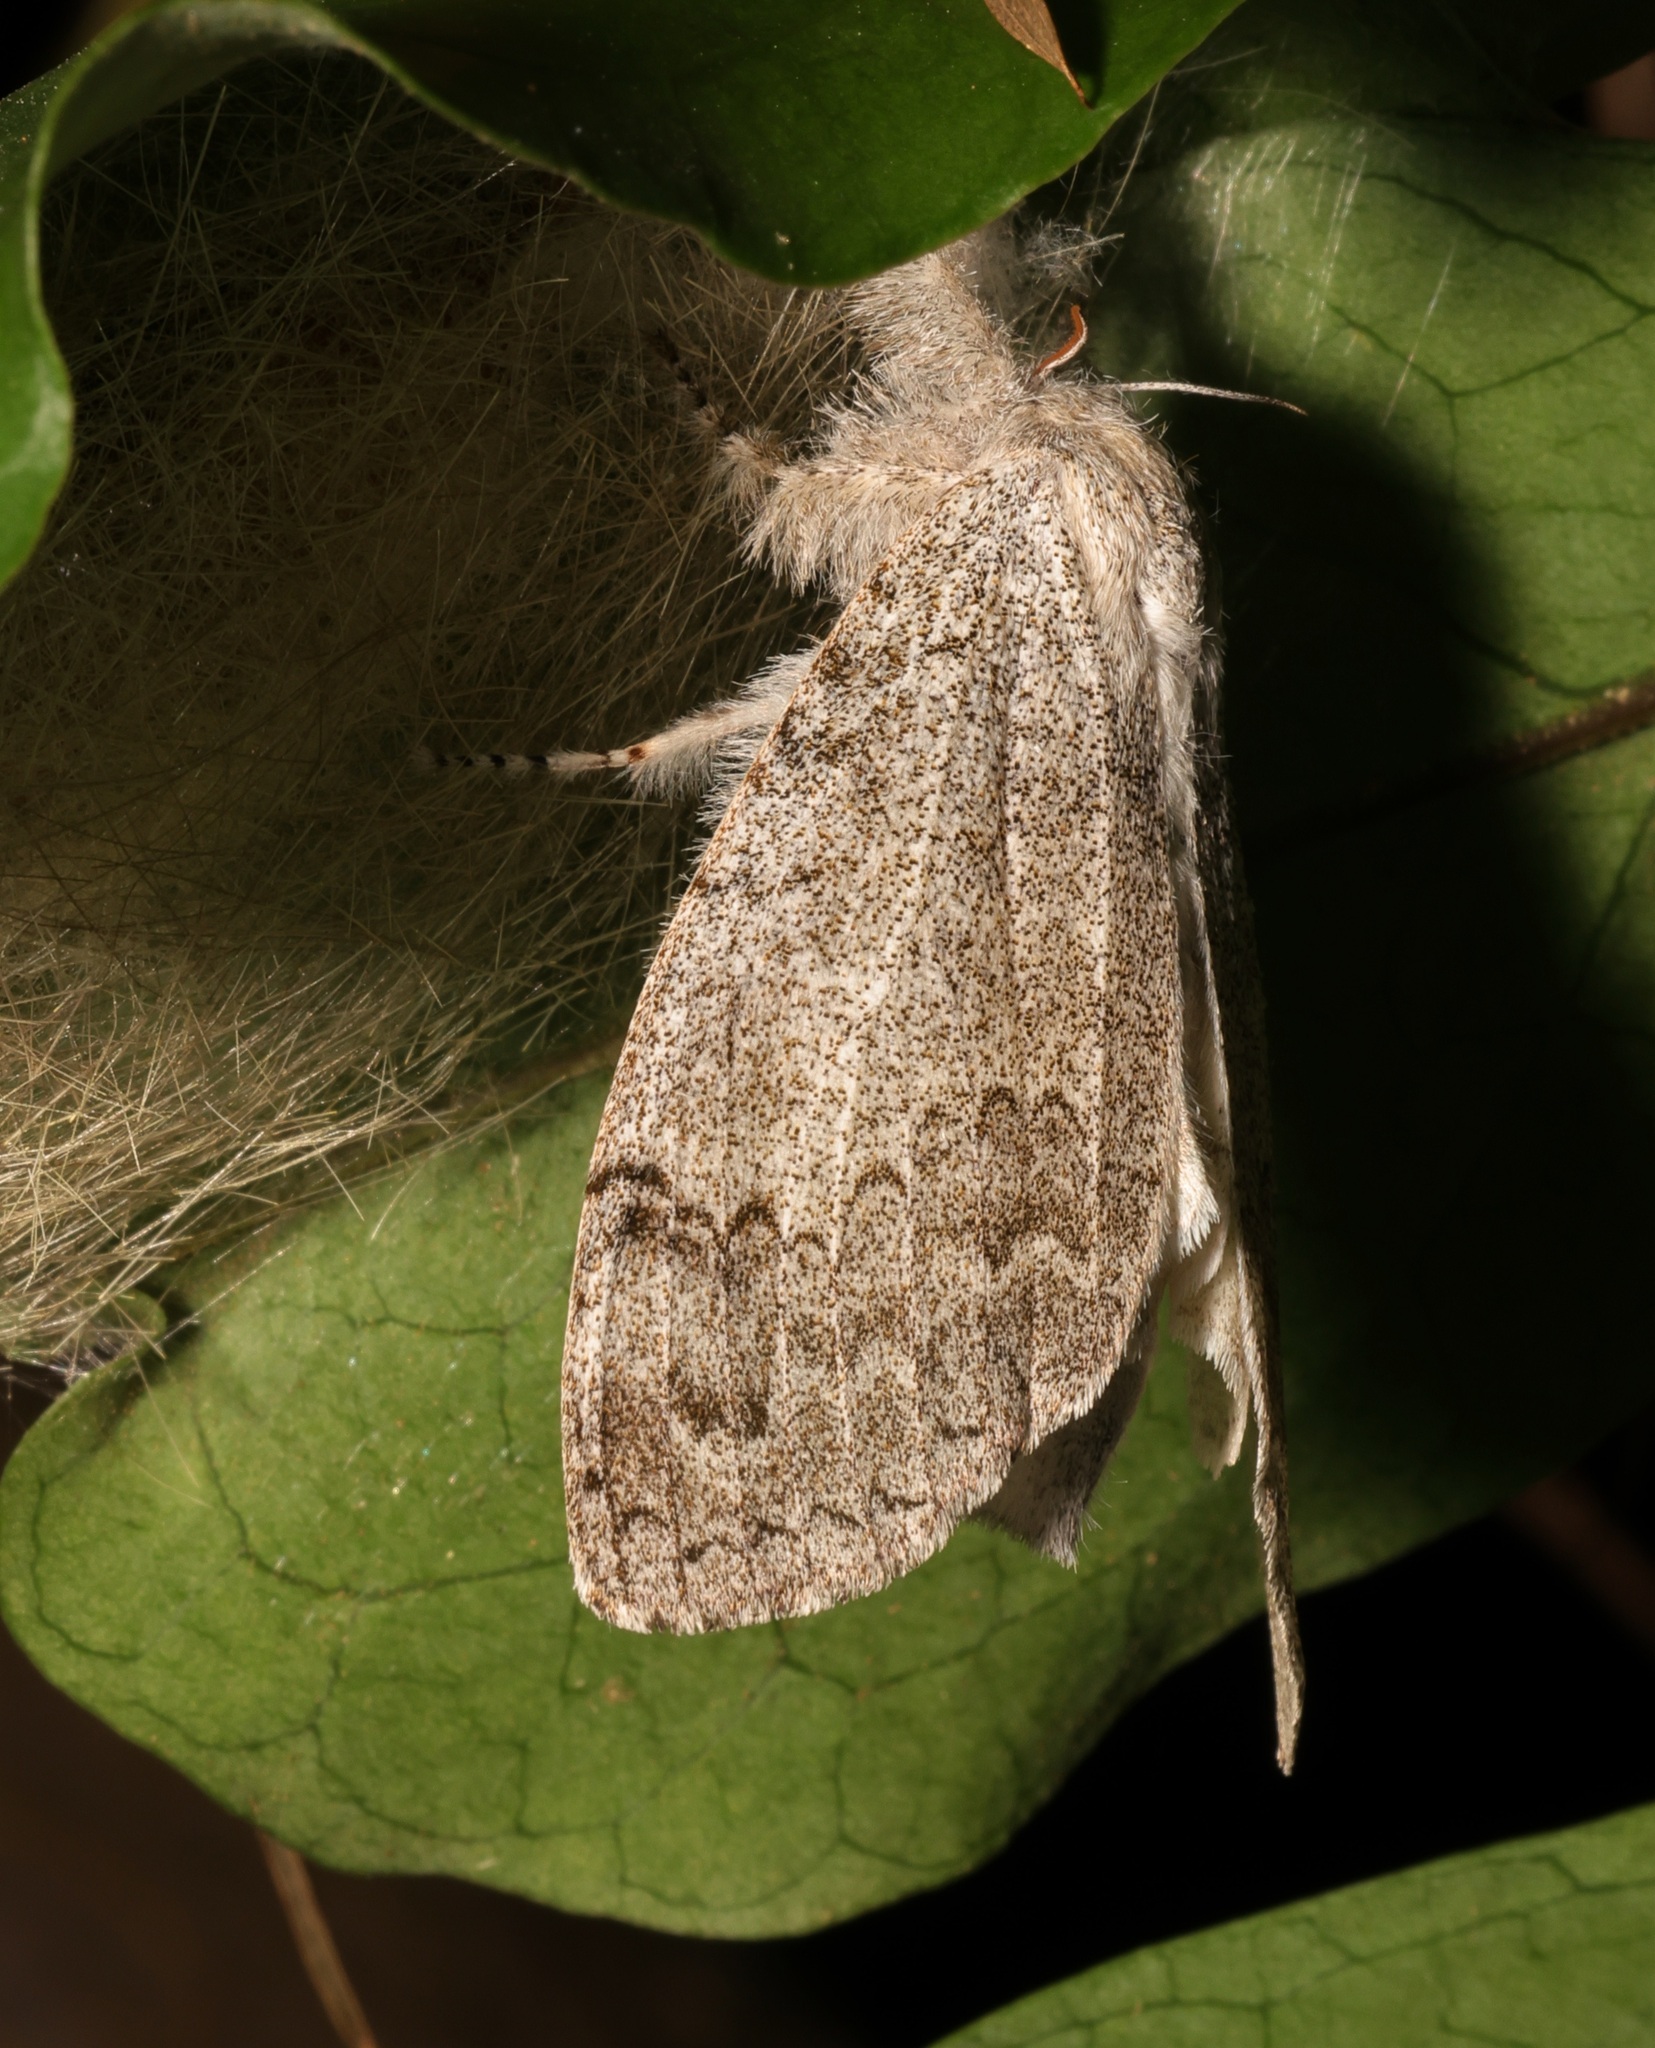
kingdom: Animalia
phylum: Arthropoda
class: Insecta
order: Lepidoptera
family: Erebidae
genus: Calliteara
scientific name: Calliteara
